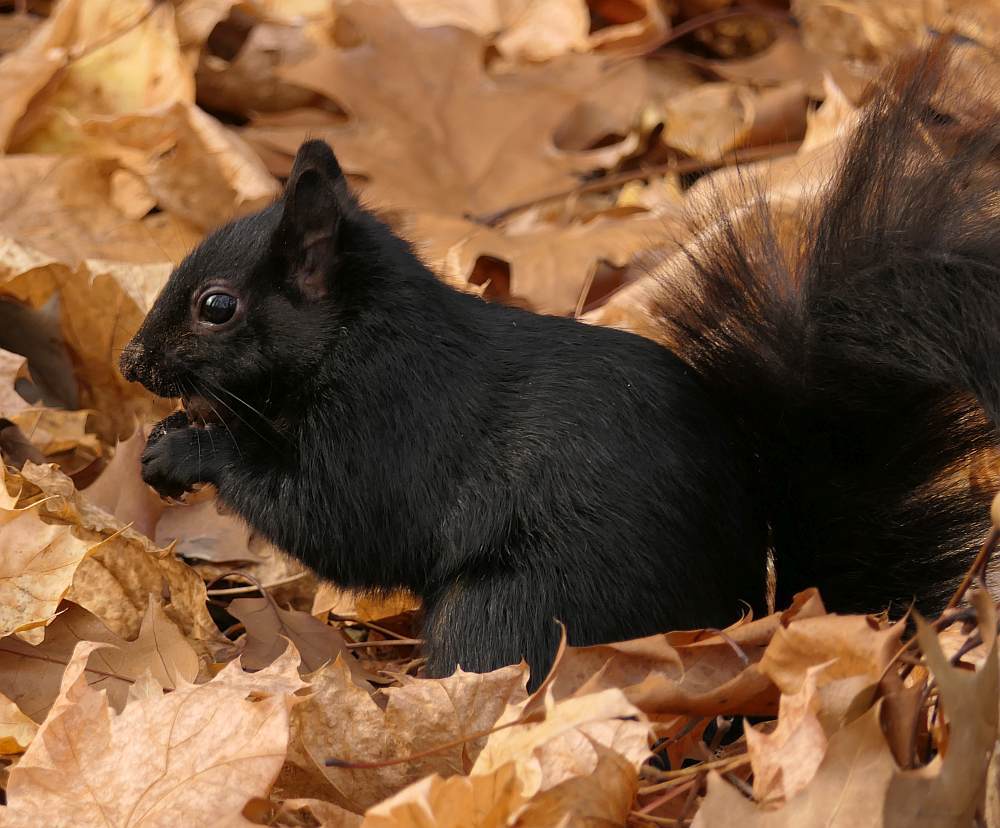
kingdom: Animalia
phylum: Chordata
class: Mammalia
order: Rodentia
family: Sciuridae
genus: Sciurus
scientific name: Sciurus carolinensis
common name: Eastern gray squirrel
